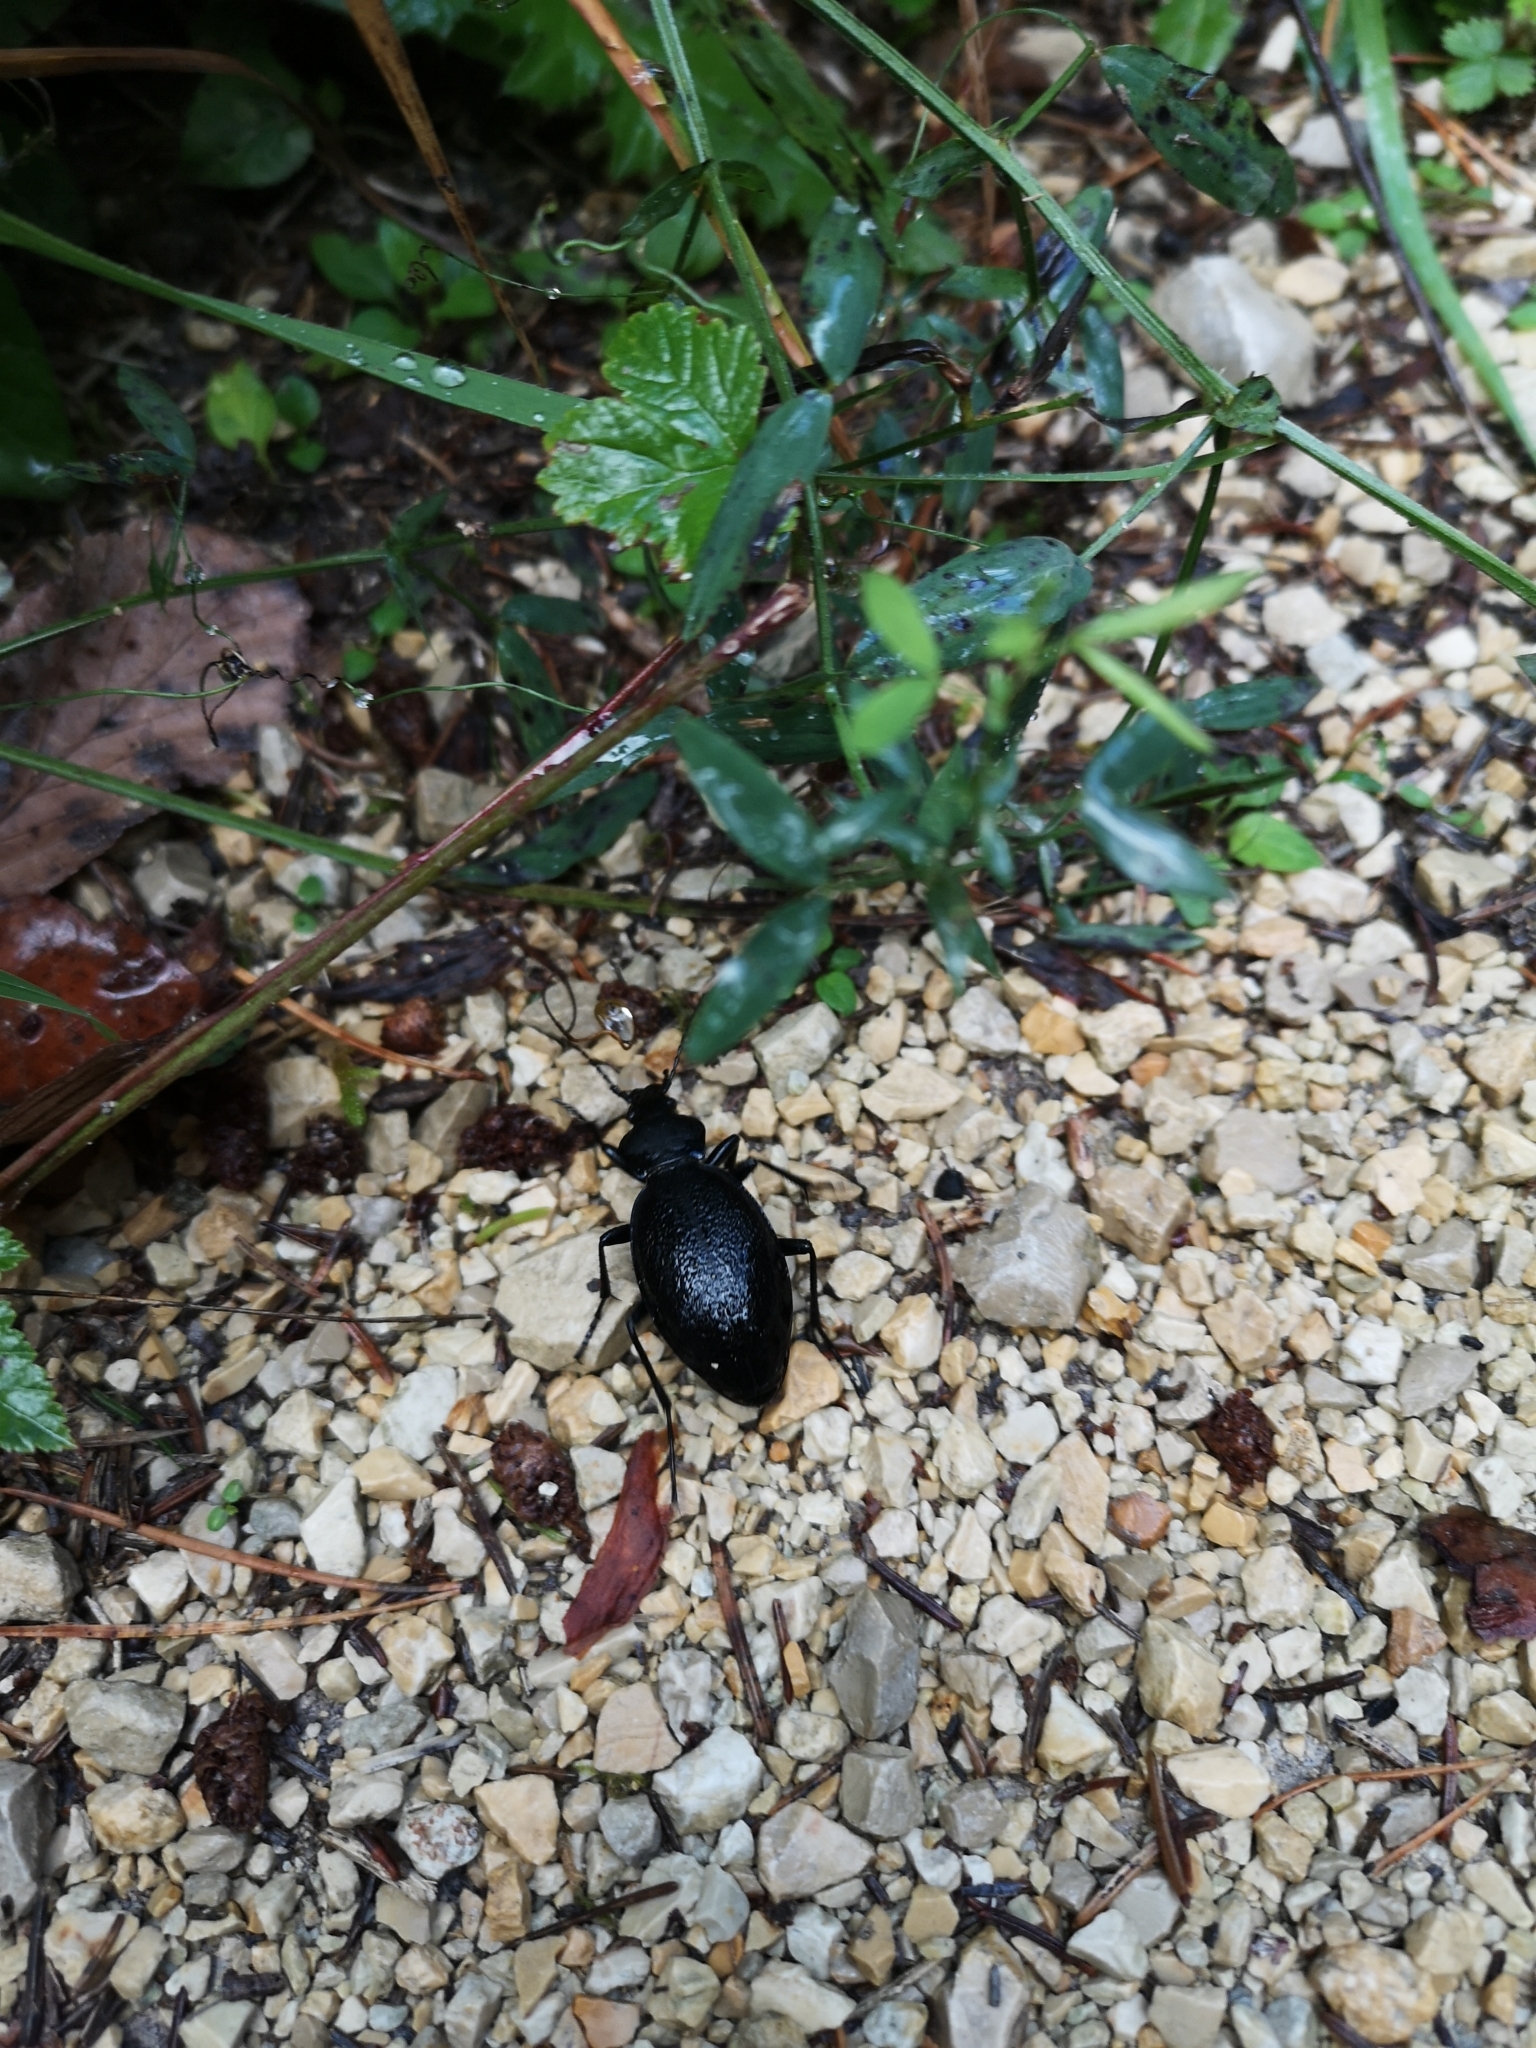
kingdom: Animalia
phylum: Arthropoda
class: Insecta
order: Coleoptera
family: Carabidae
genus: Carabus
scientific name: Carabus coriaceus
